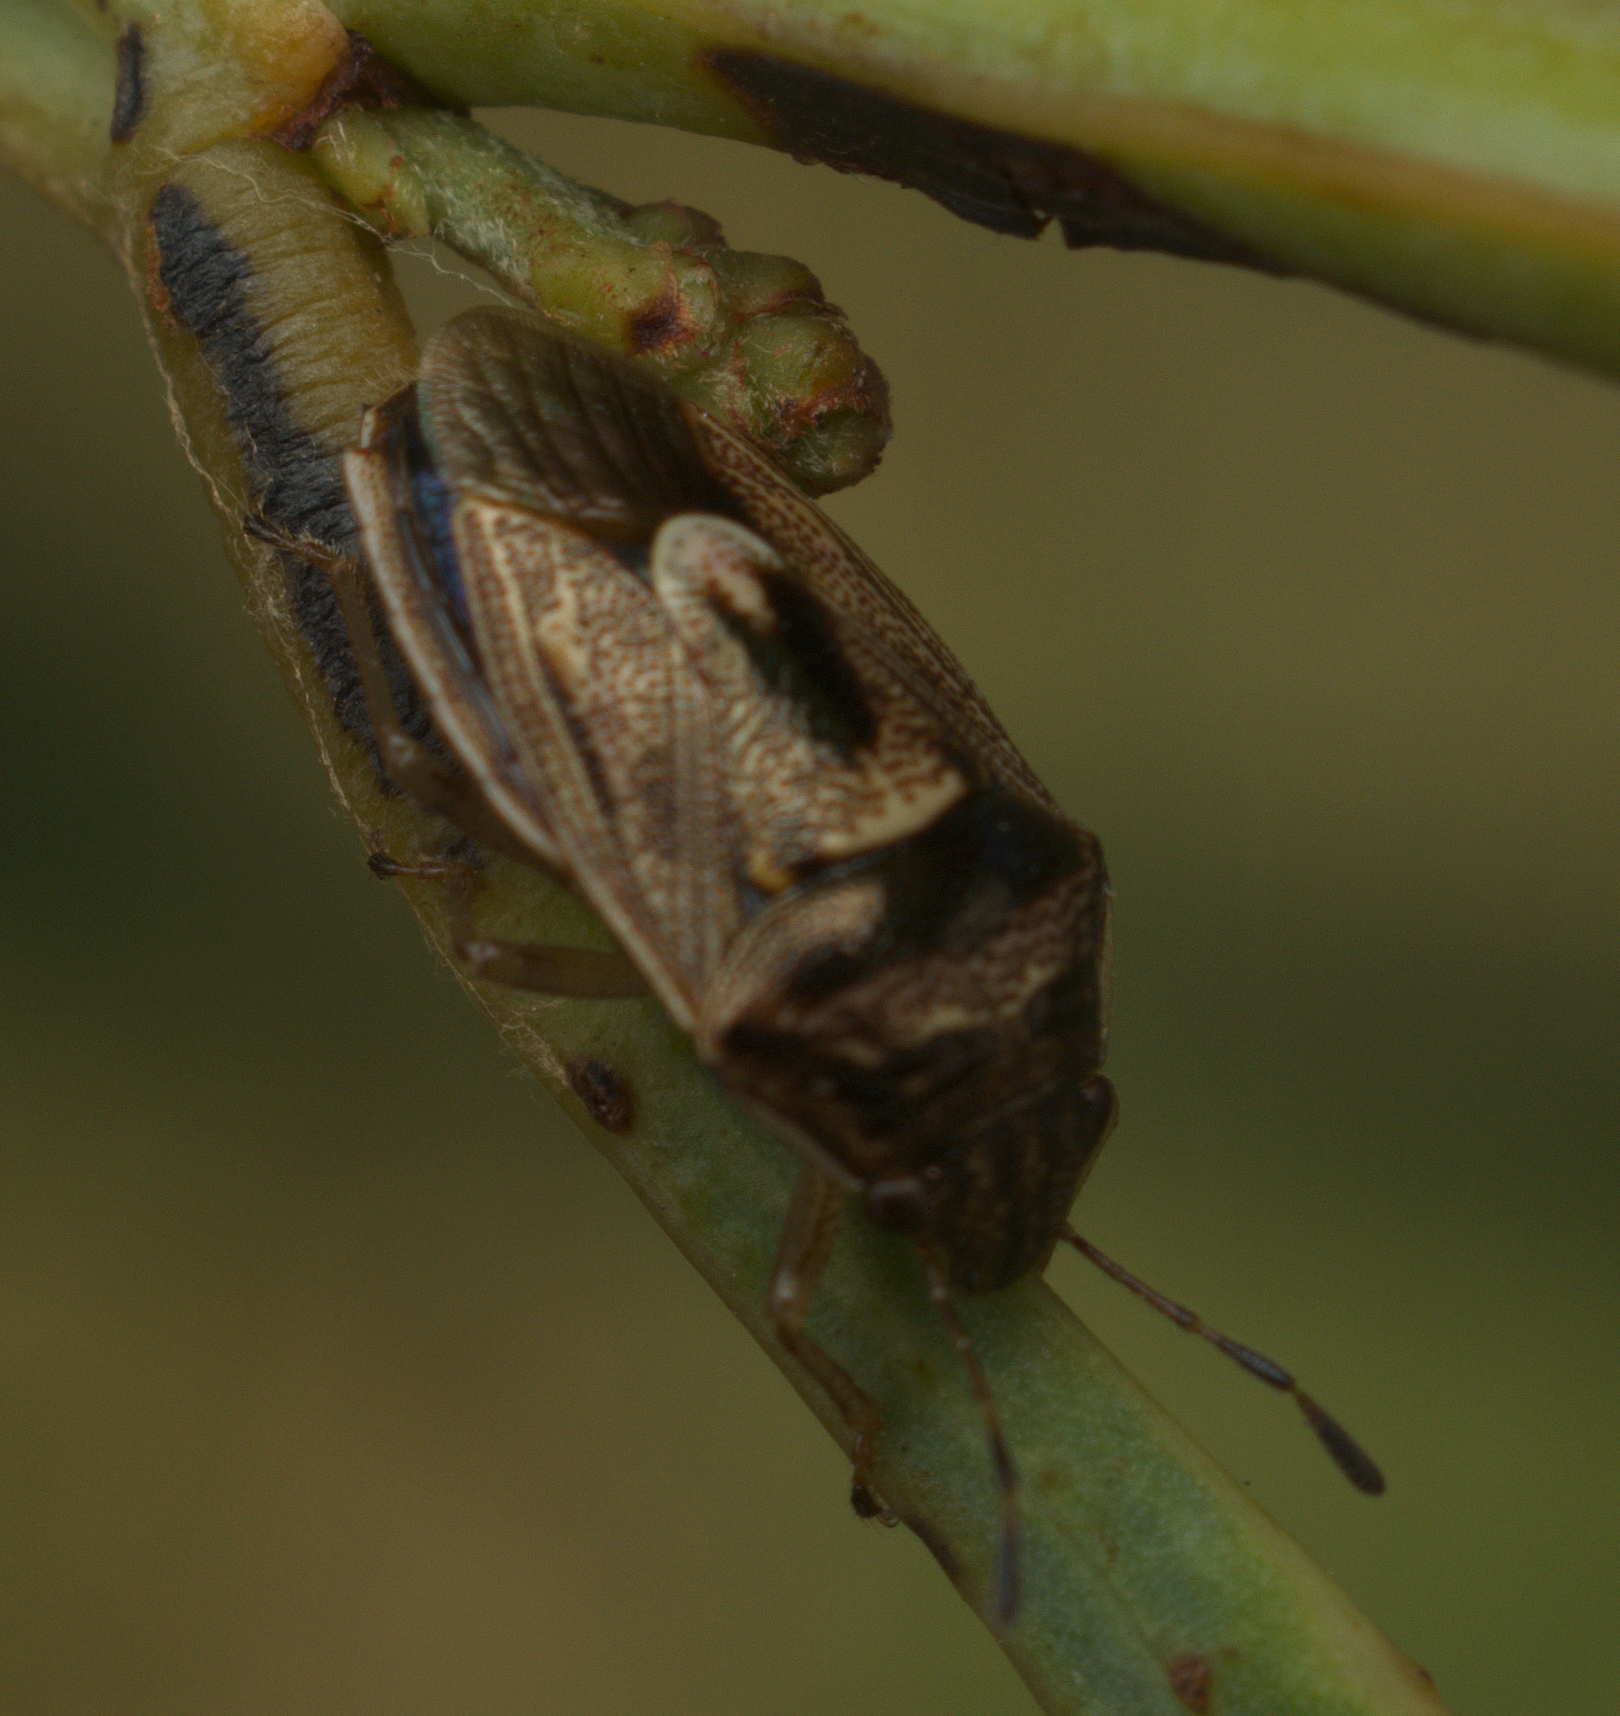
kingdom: Animalia
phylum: Arthropoda
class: Insecta
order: Hemiptera
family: Pentatomidae
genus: Menida
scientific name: Menida
